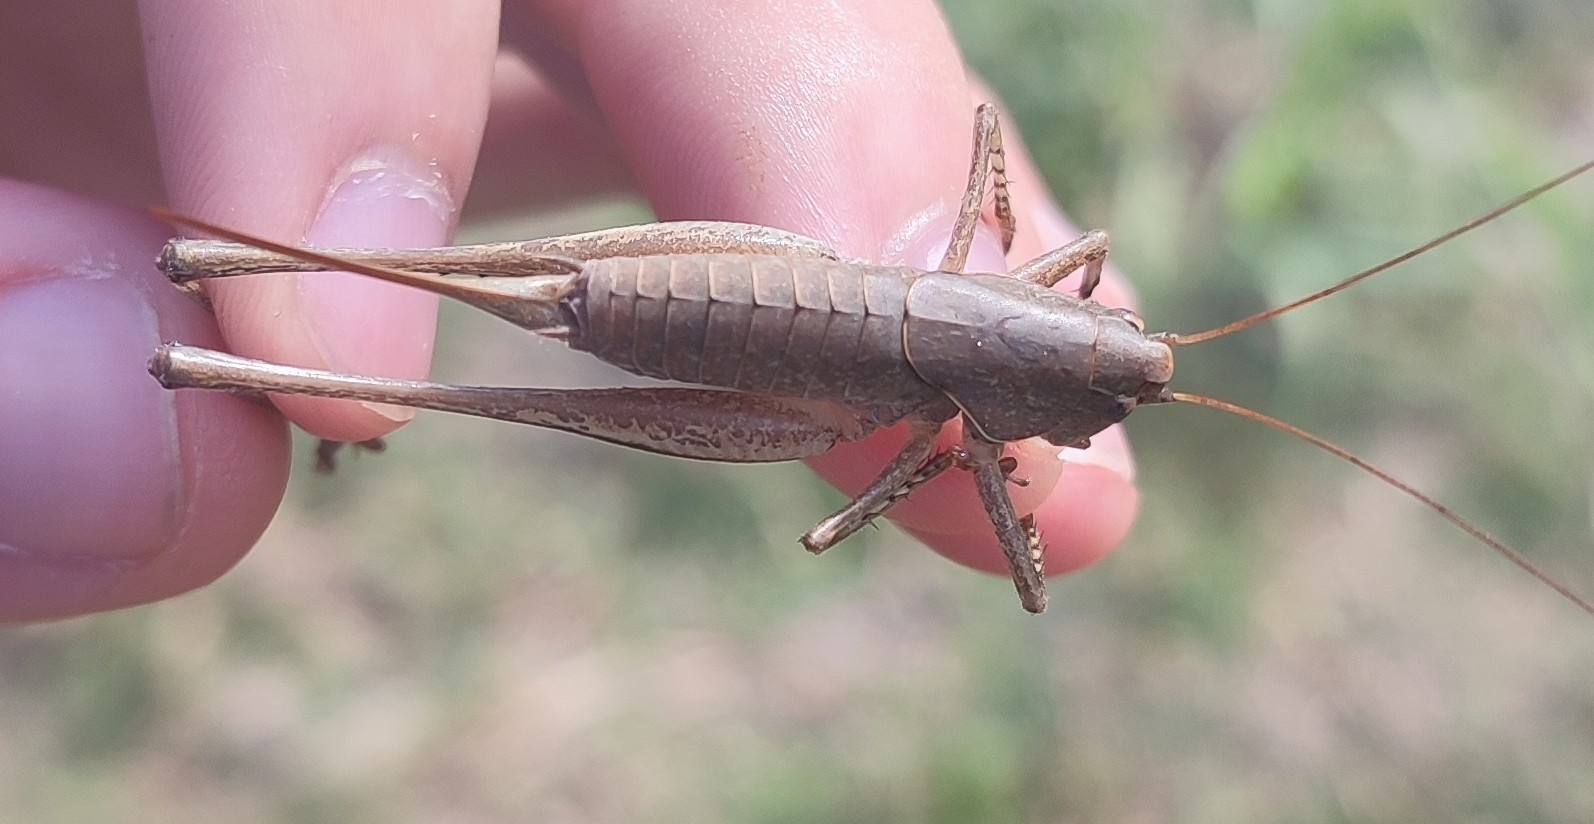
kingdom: Animalia
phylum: Arthropoda
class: Insecta
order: Orthoptera
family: Tettigoniidae
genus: Rhacocleis
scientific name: Rhacocleis poneli
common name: Ponel's bush-cricket
